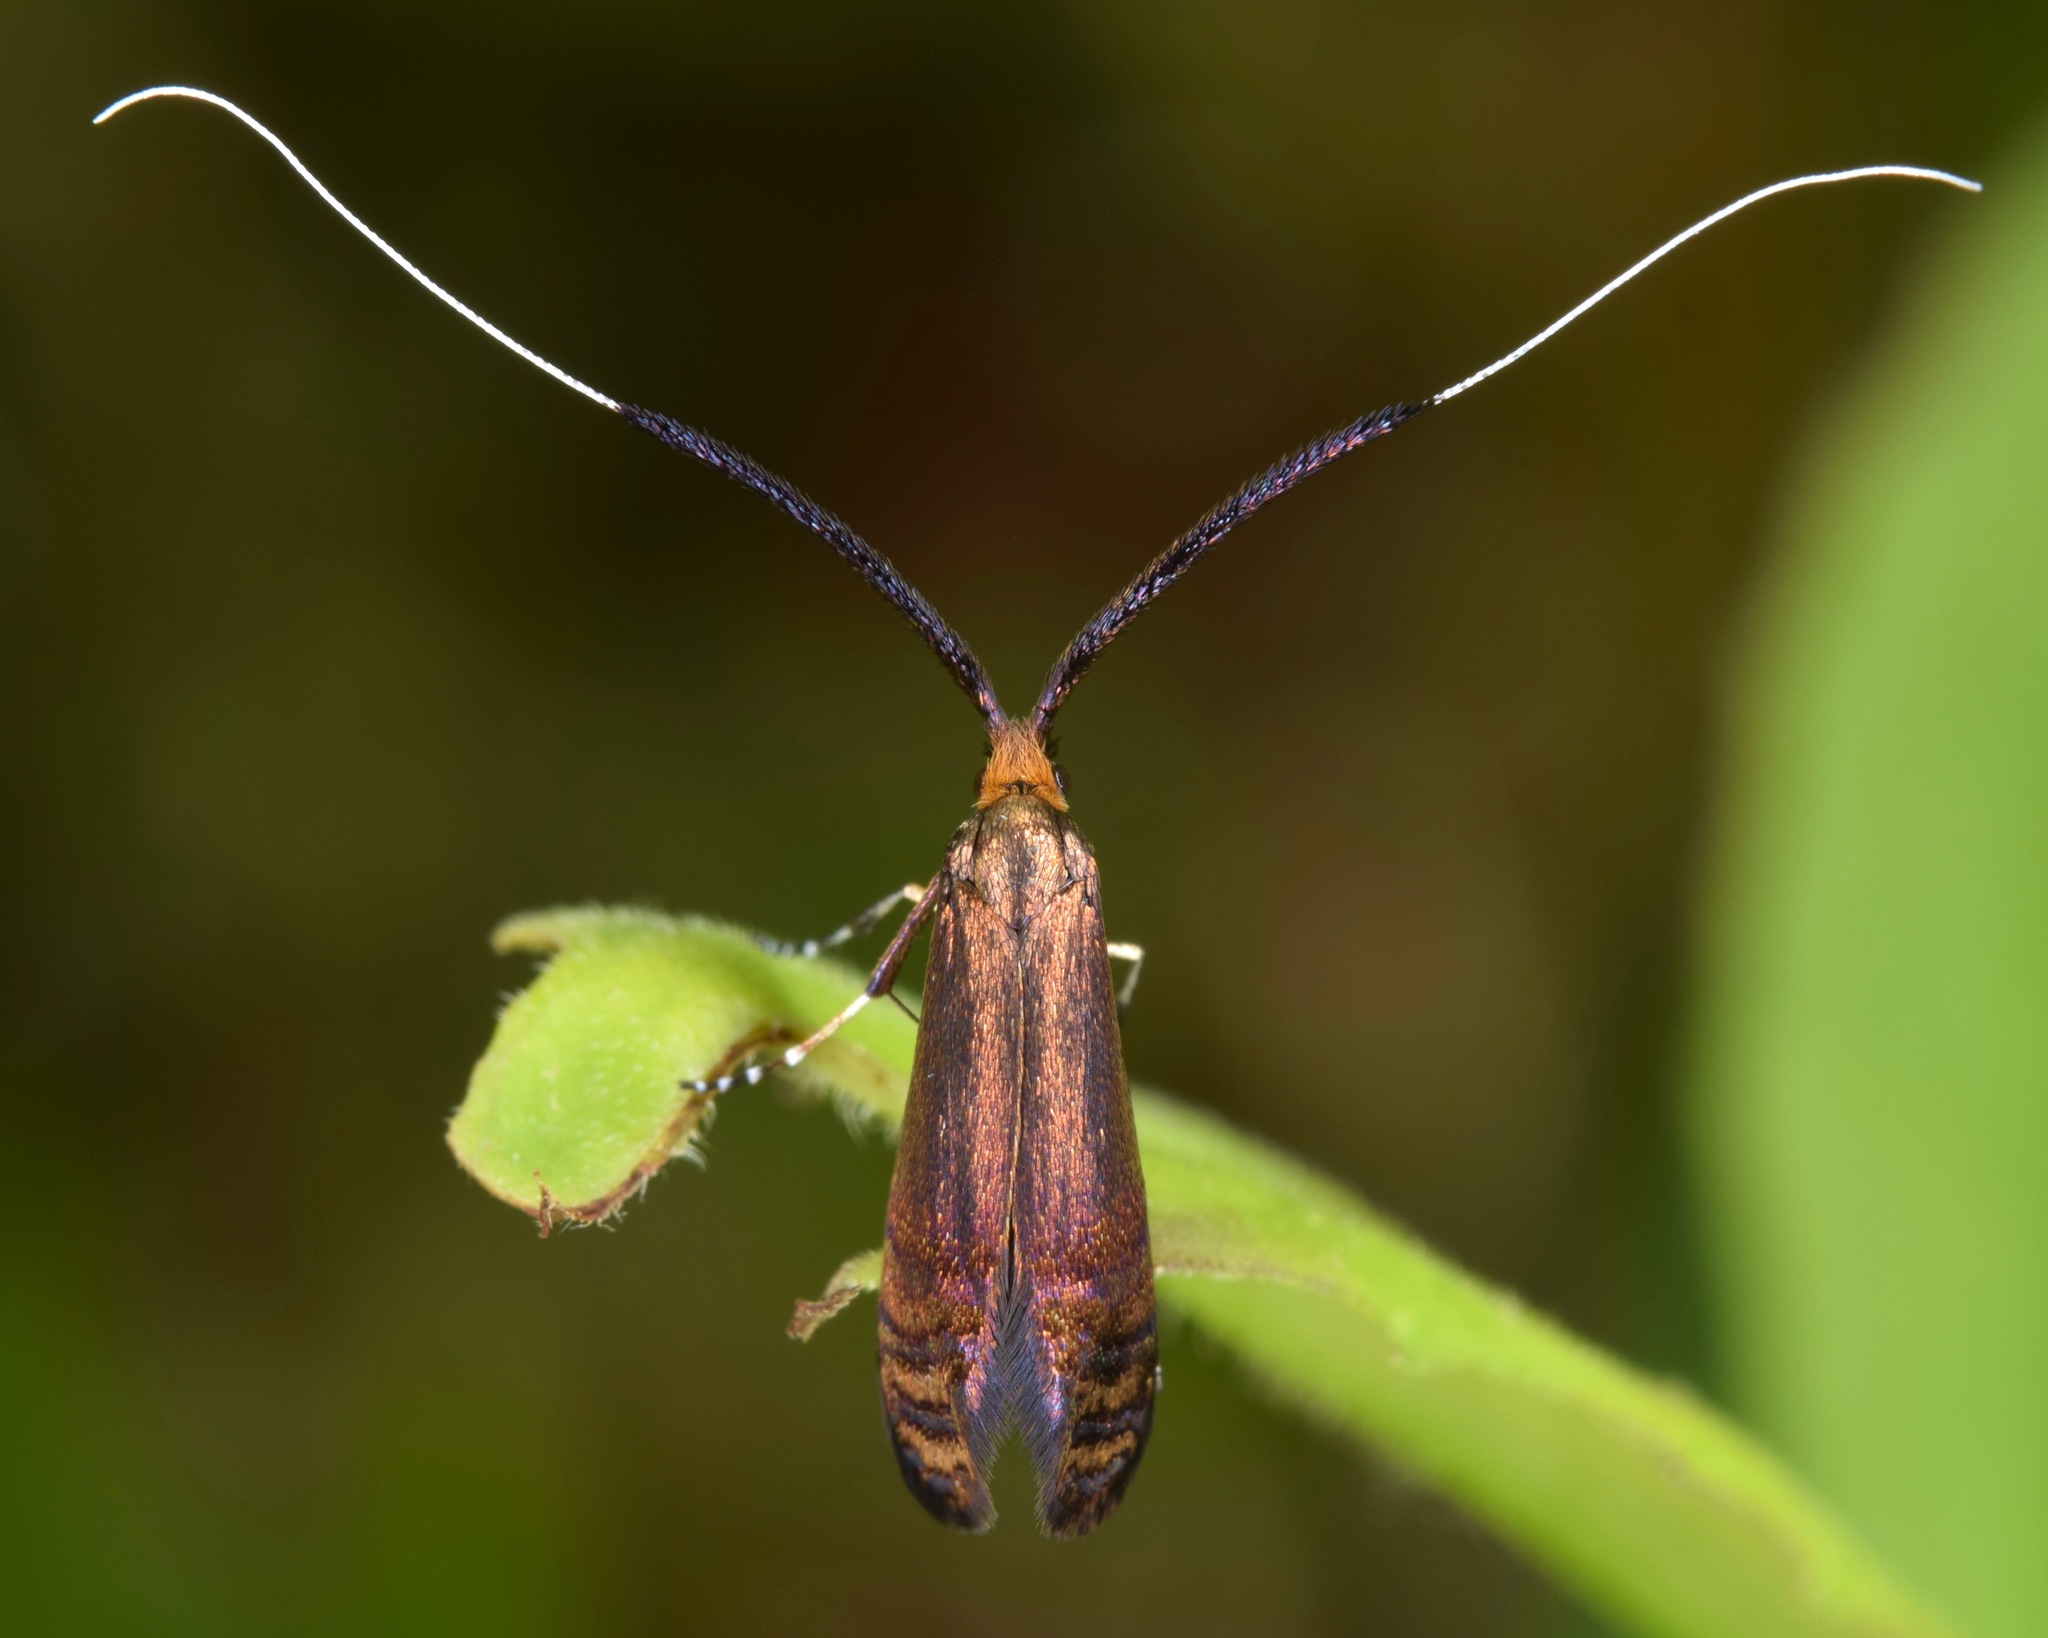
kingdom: Animalia
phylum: Arthropoda
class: Insecta
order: Lepidoptera
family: Adelidae
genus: Adela
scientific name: Adela caeruleella
